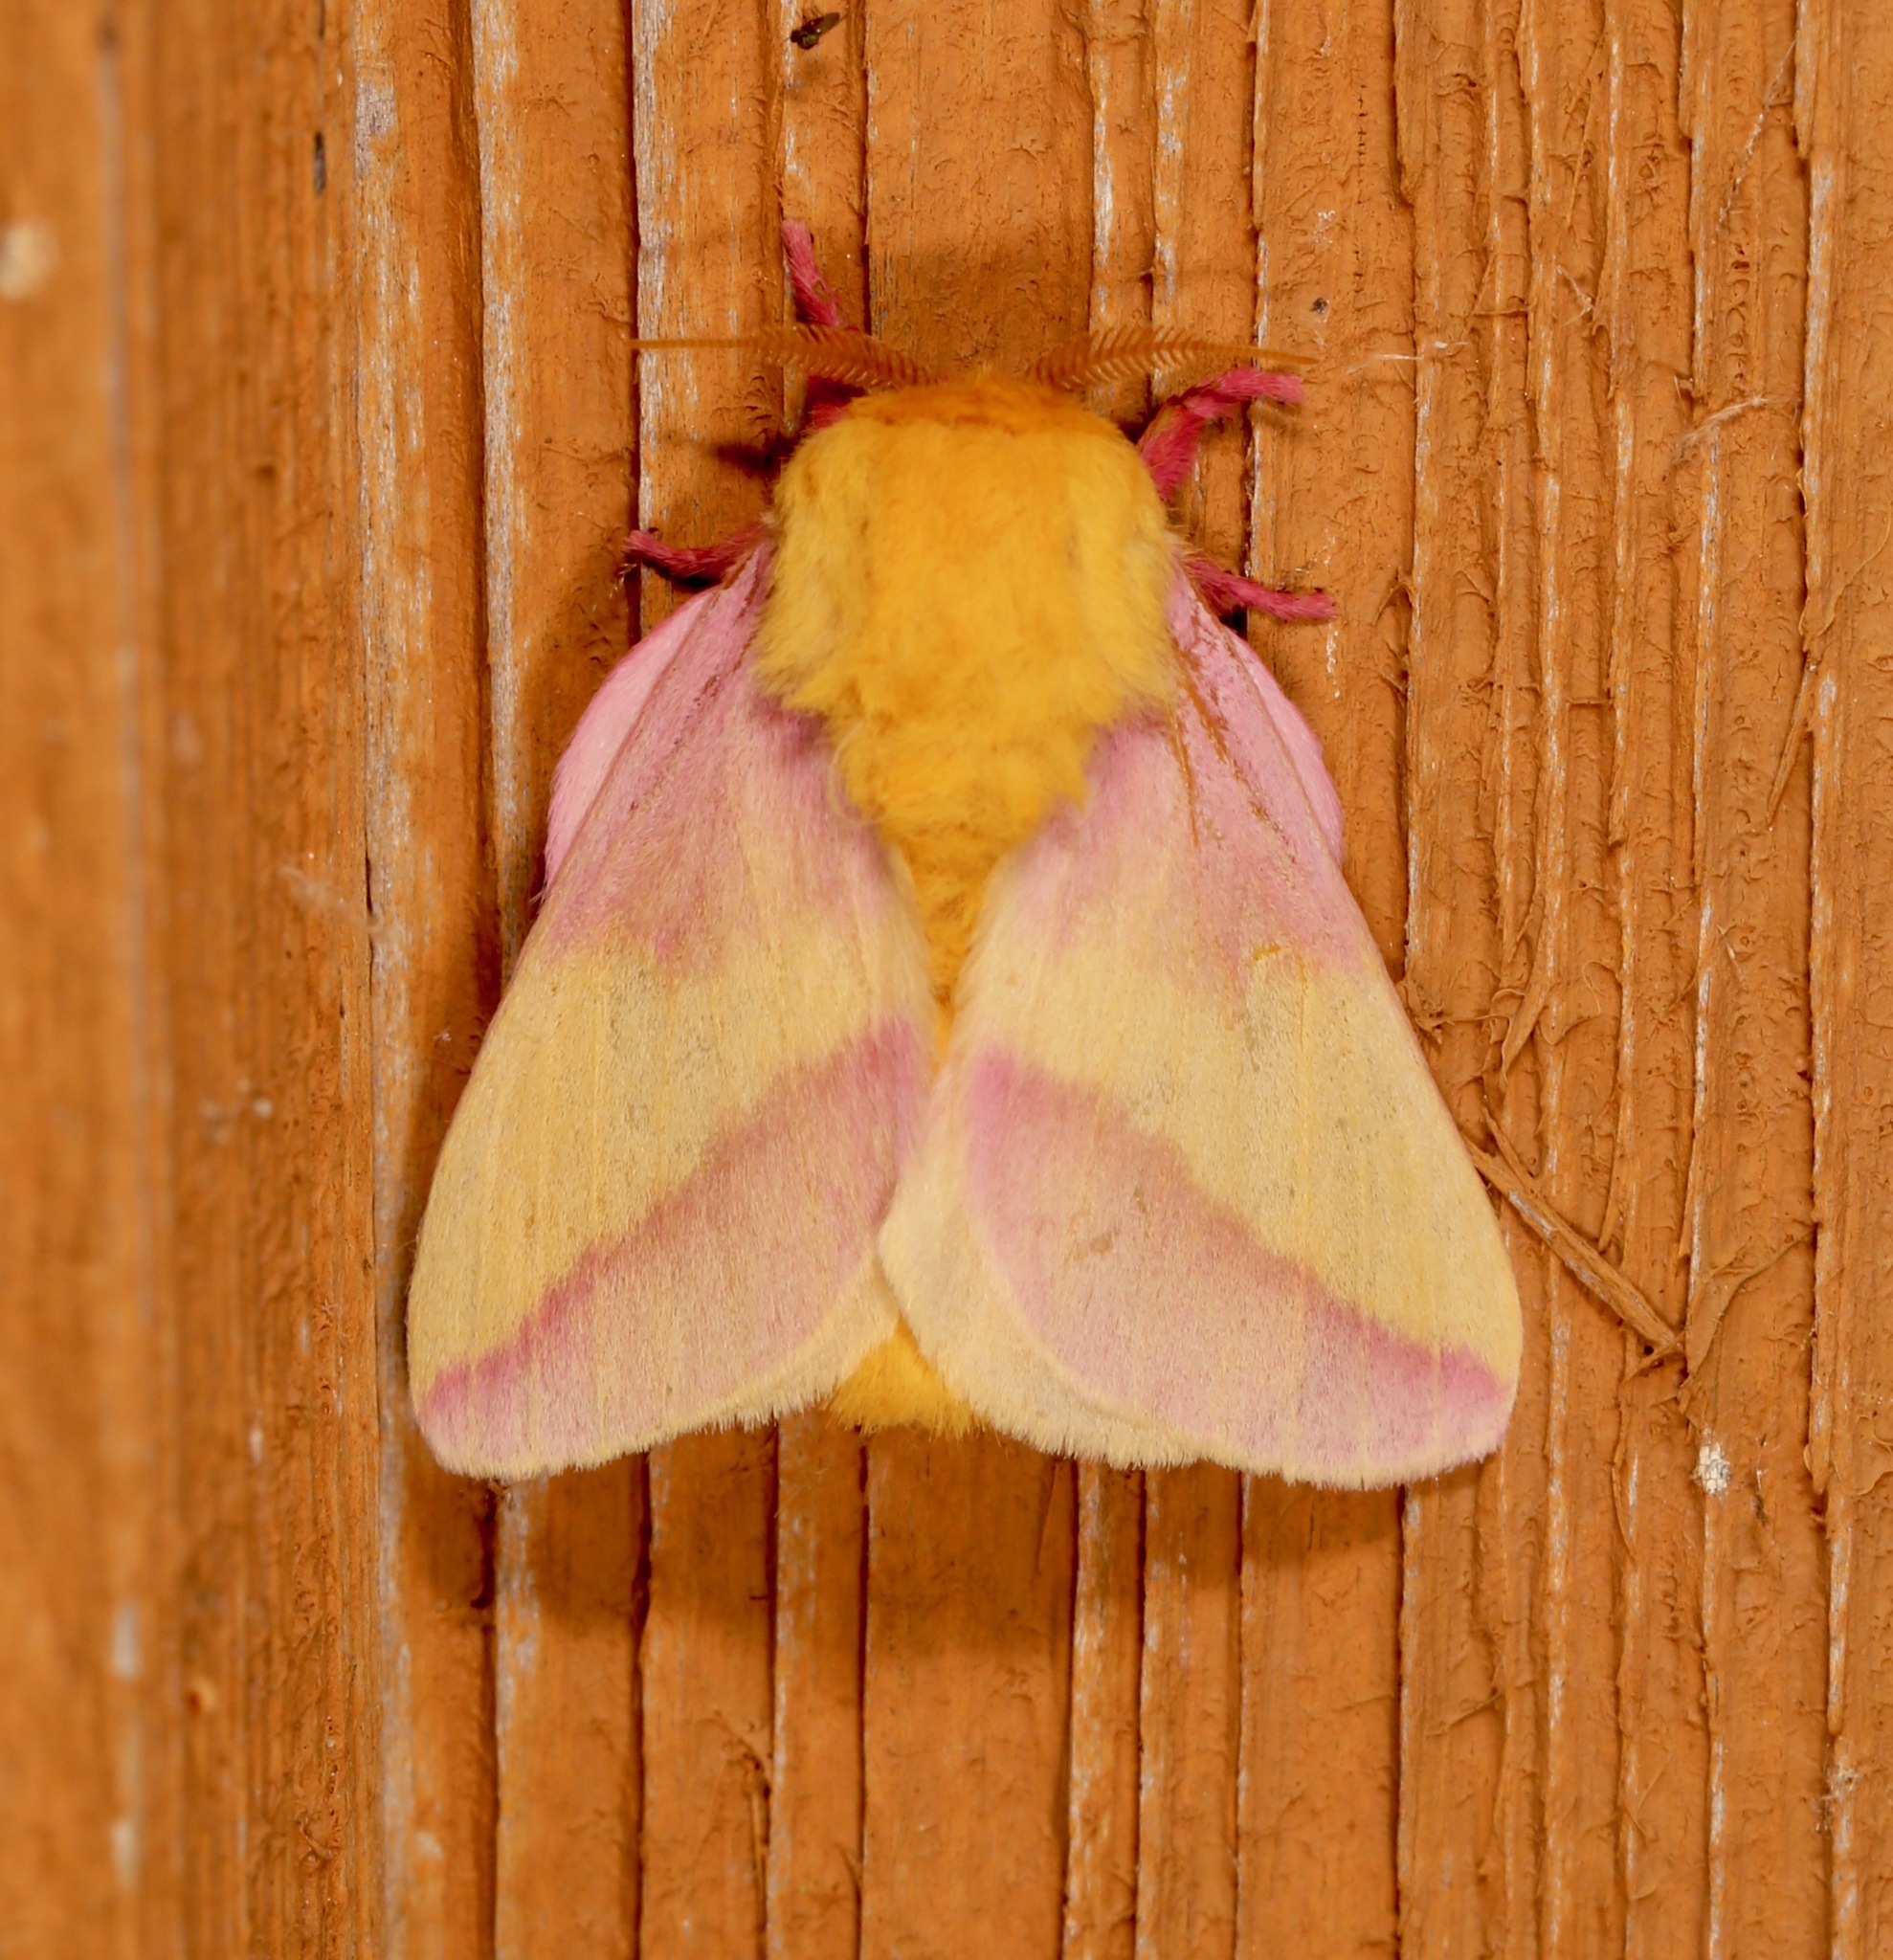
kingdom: Animalia
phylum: Arthropoda
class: Insecta
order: Lepidoptera
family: Saturniidae
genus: Dryocampa
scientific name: Dryocampa rubicunda
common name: Rosy maple moth
